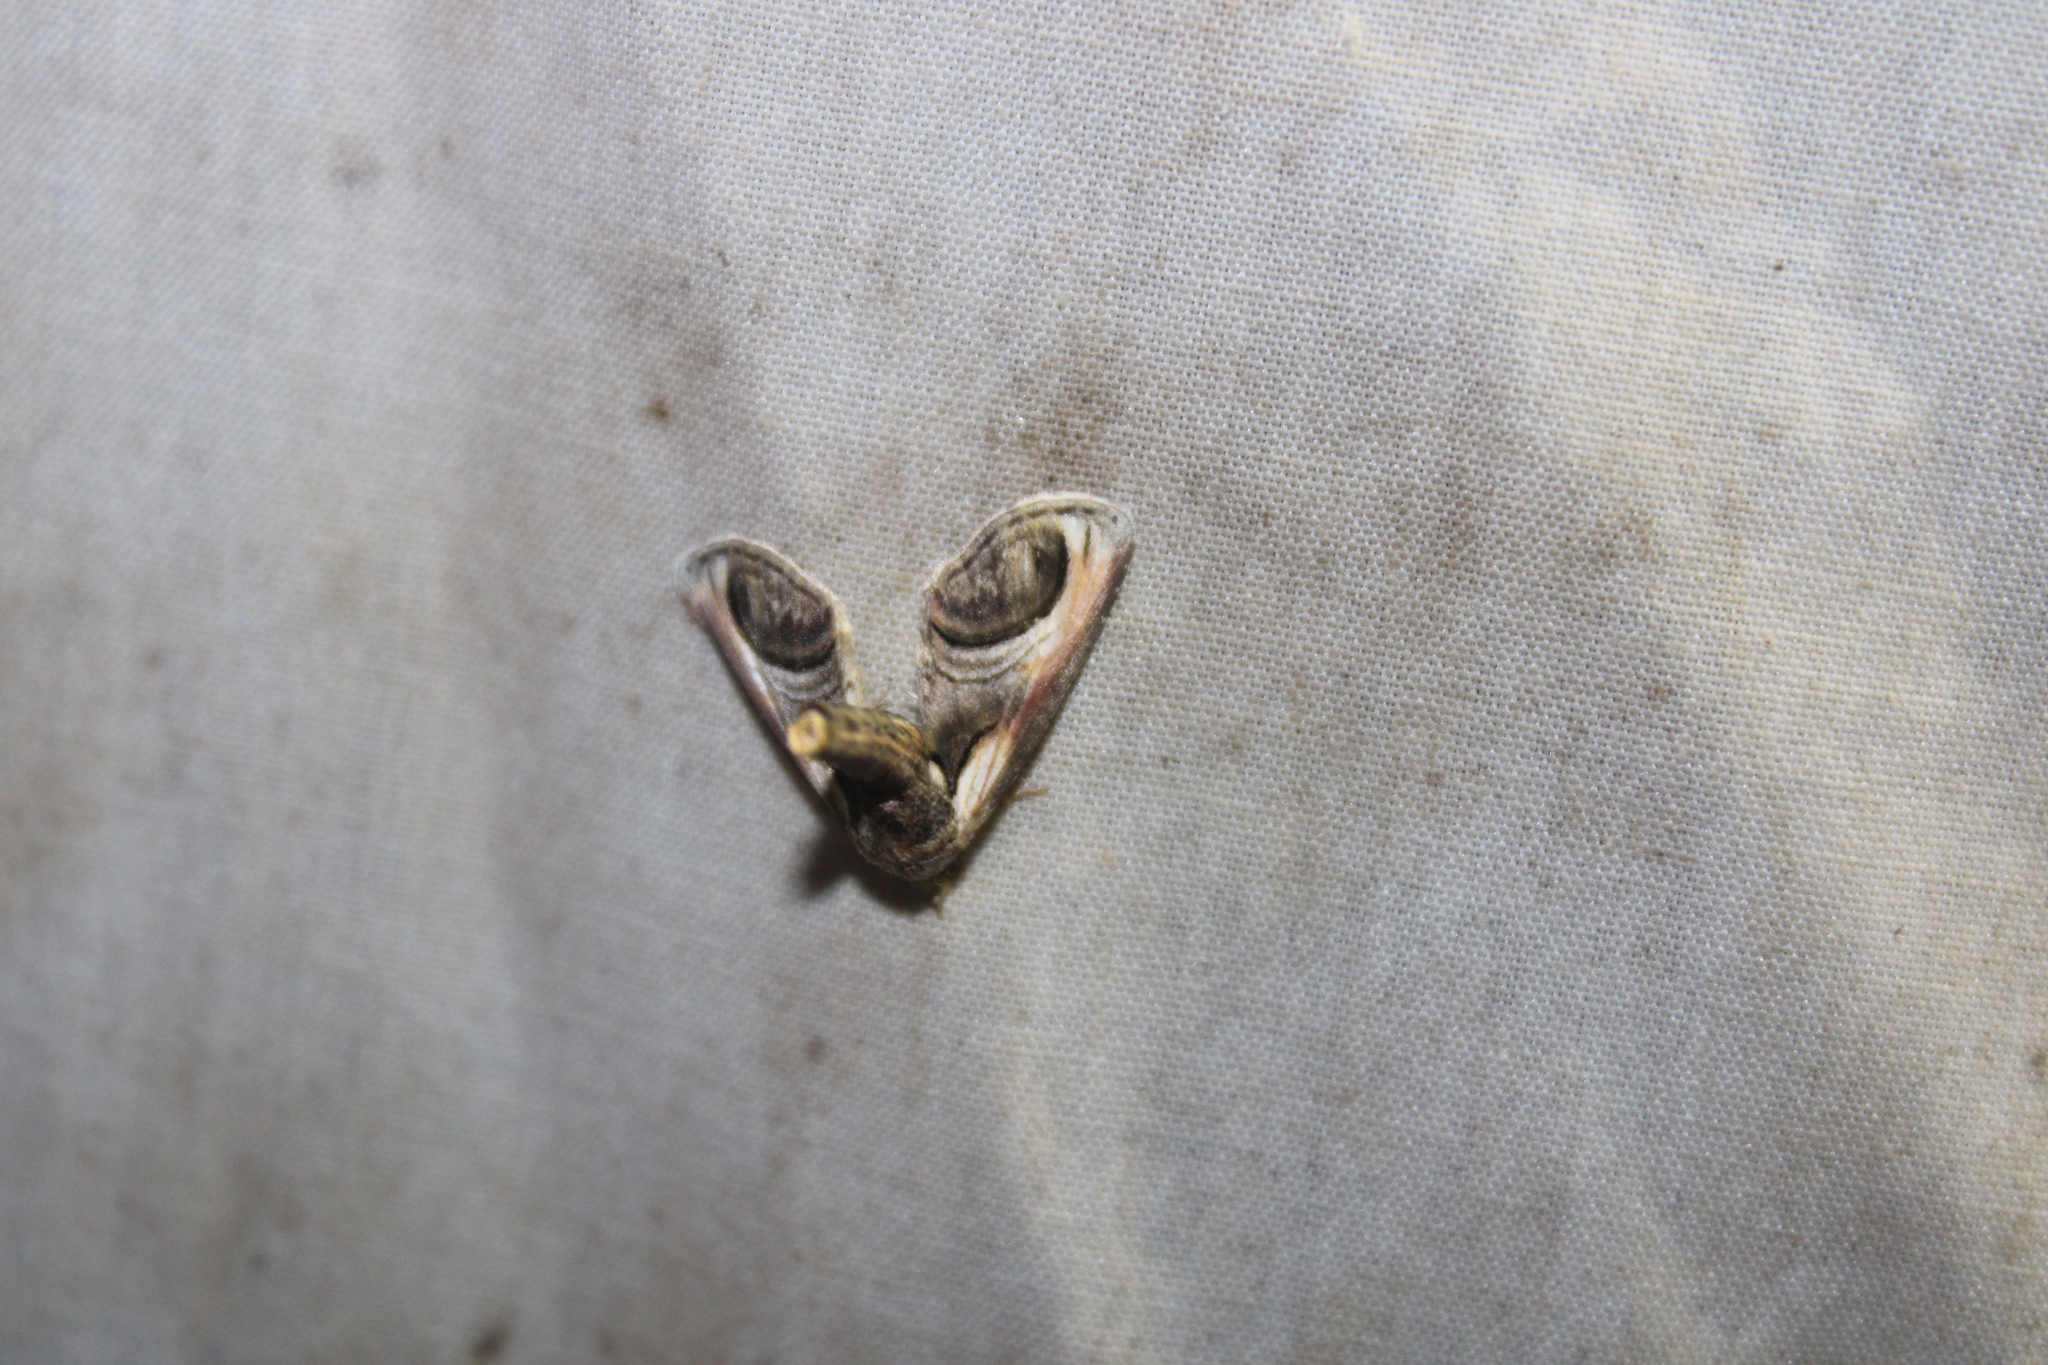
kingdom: Animalia
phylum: Arthropoda
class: Insecta
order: Lepidoptera
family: Euteliidae
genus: Paectes
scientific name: Paectes oculatrix
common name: Eyed paectes moth
